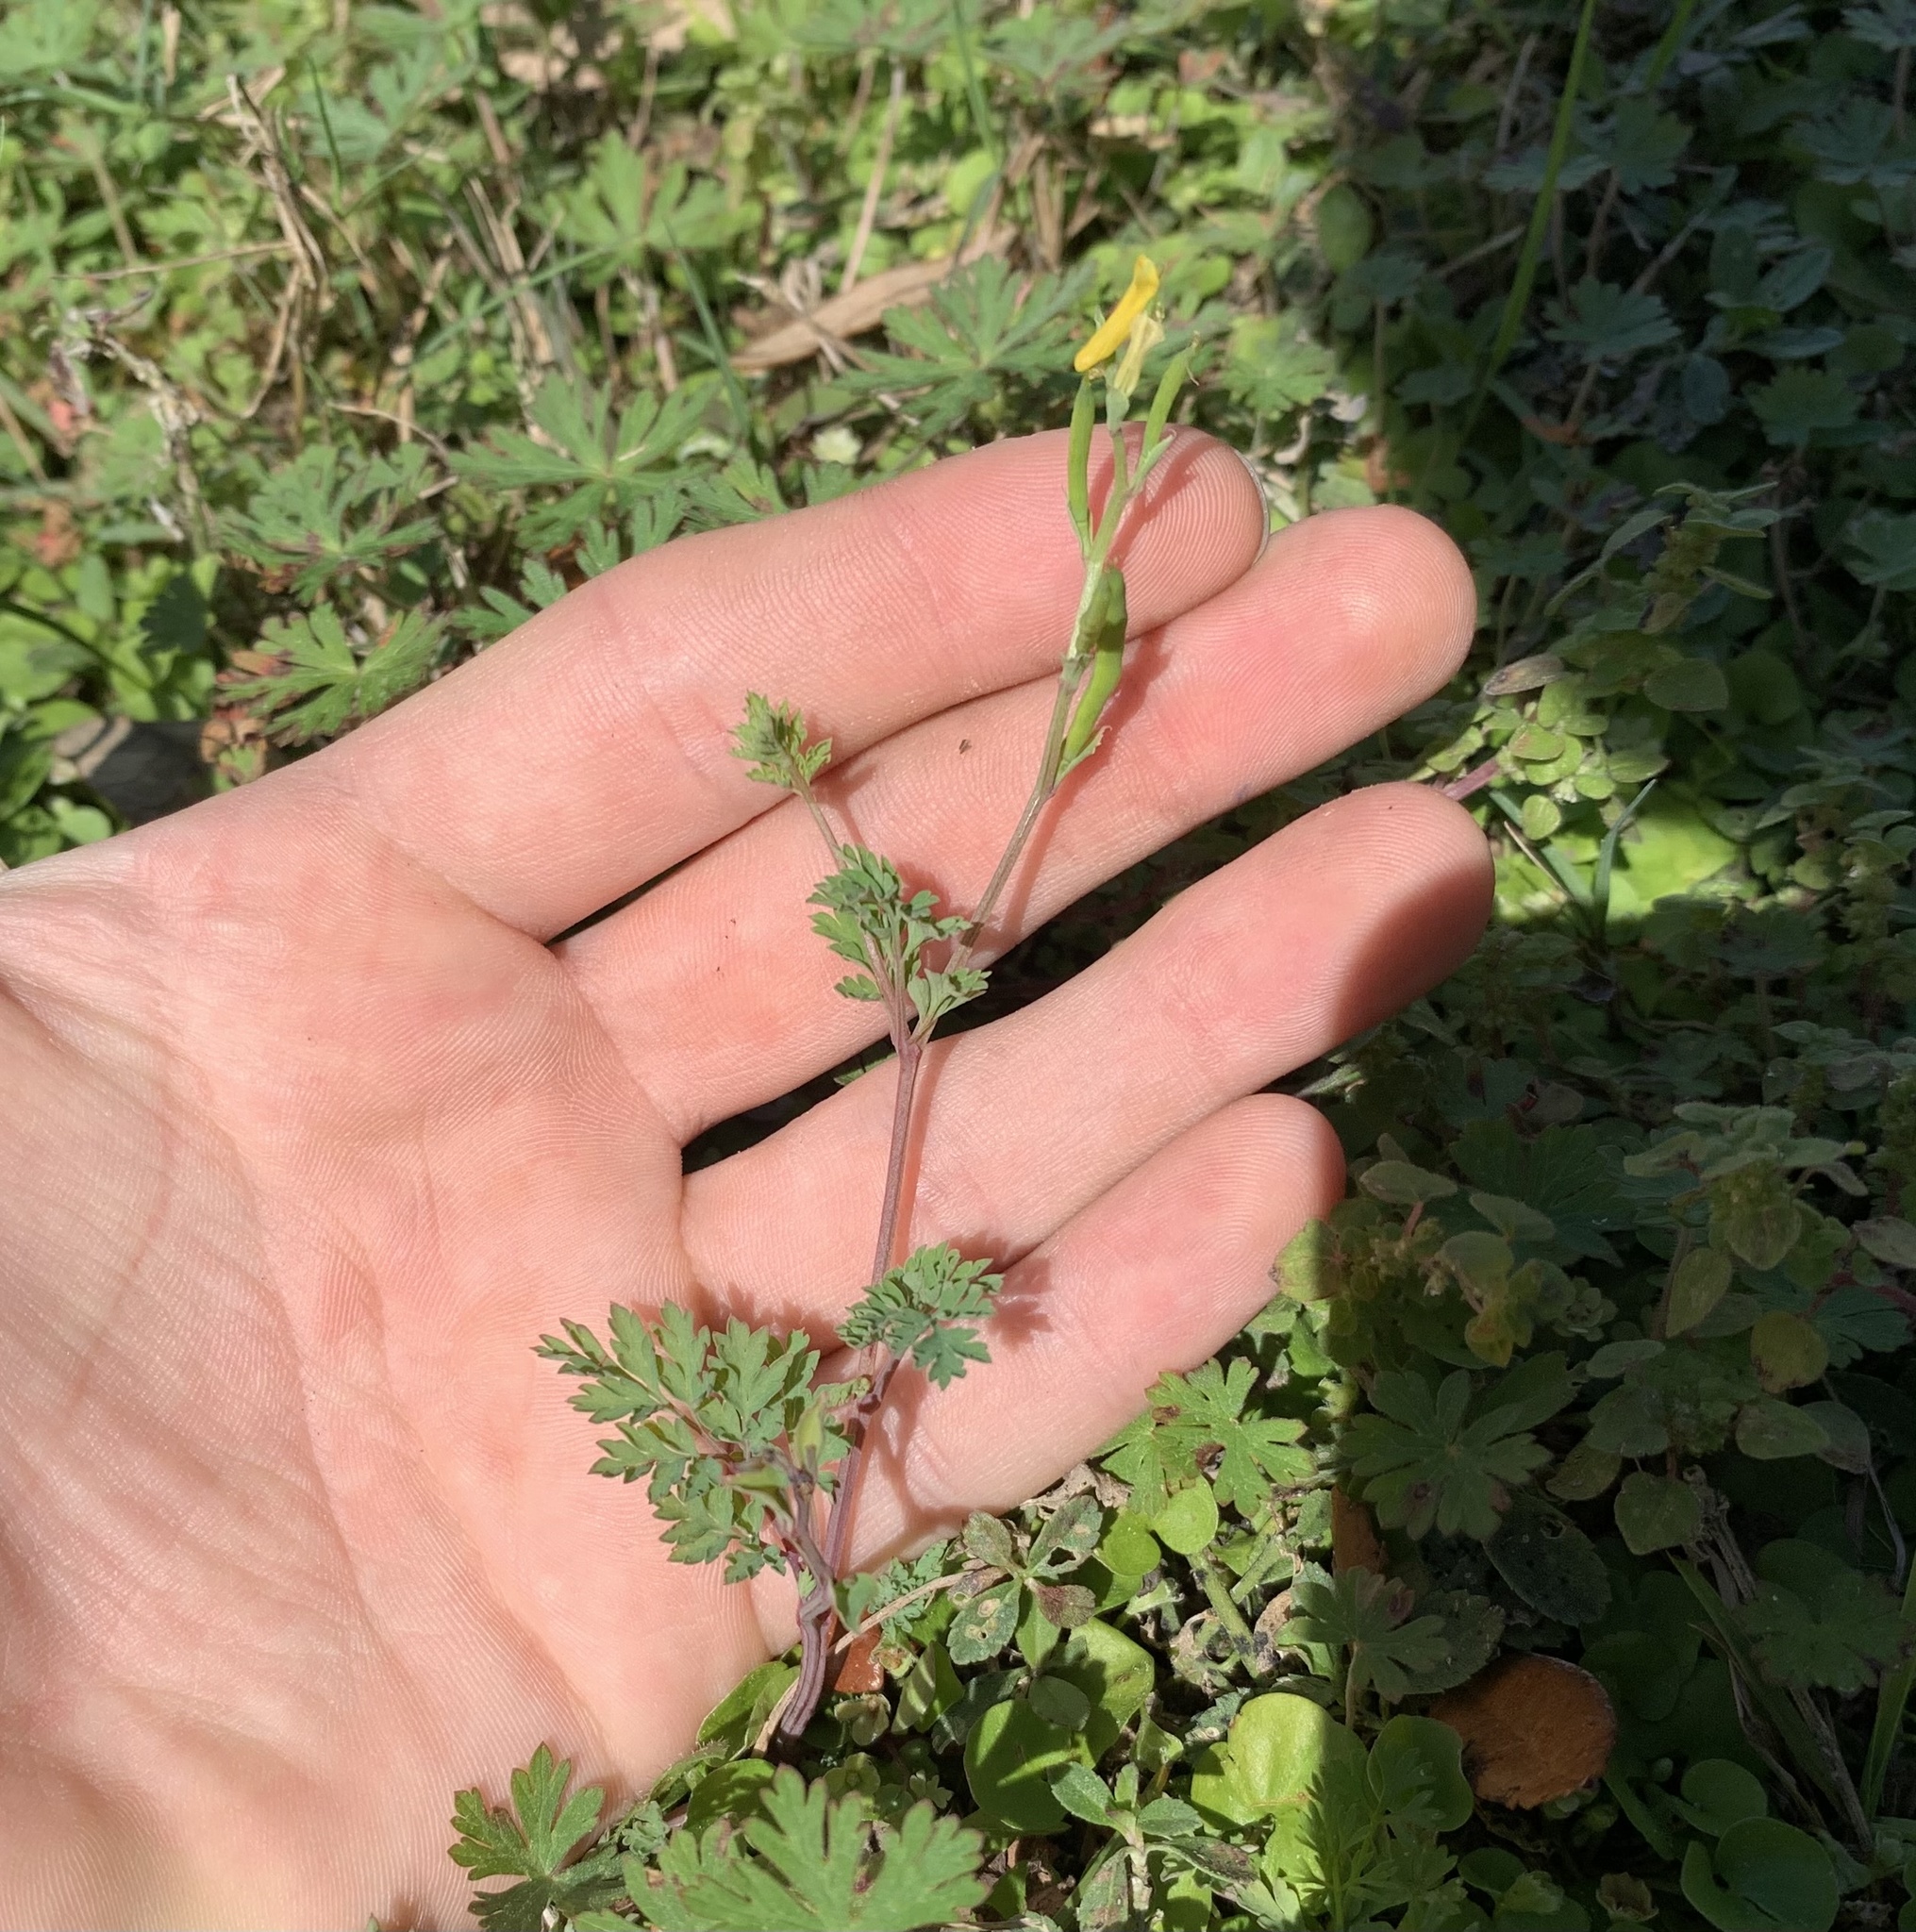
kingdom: Plantae
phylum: Tracheophyta
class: Magnoliopsida
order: Ranunculales
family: Papaveraceae
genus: Corydalis
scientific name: Corydalis micrantha
